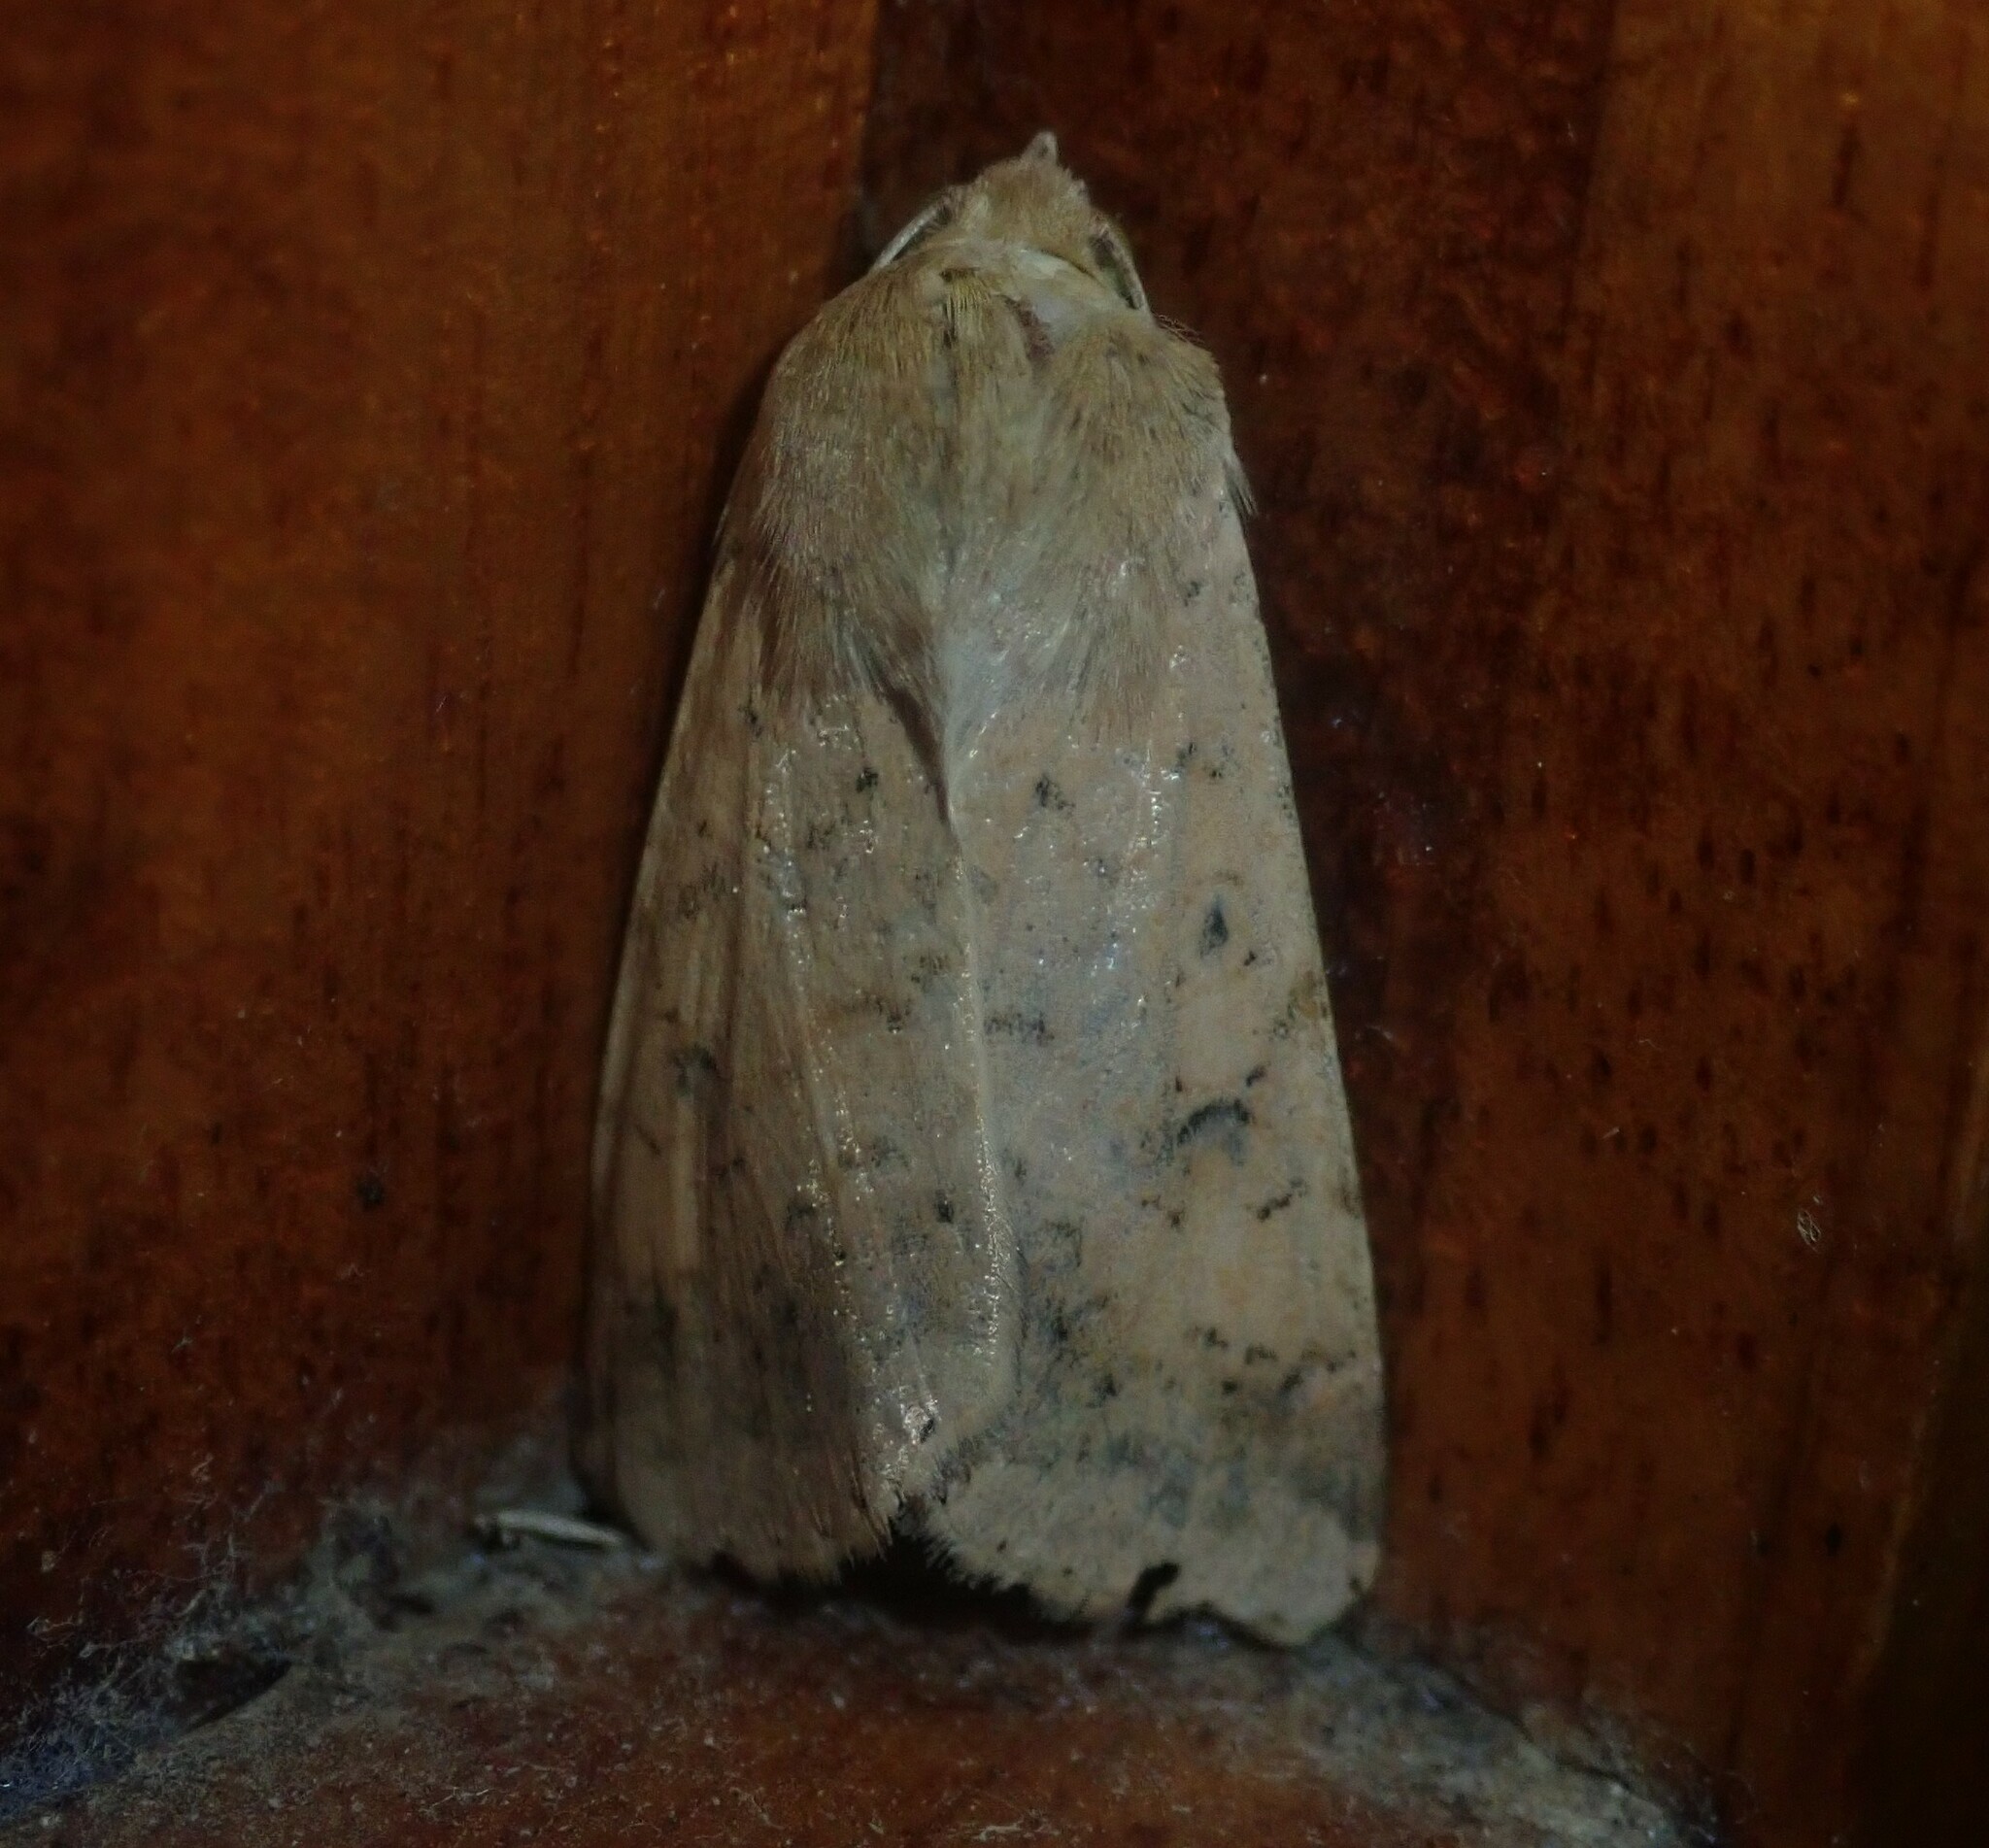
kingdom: Animalia
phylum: Arthropoda
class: Insecta
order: Lepidoptera
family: Noctuidae
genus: Helicoverpa
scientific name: Helicoverpa armigera
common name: Cotton bollworm
